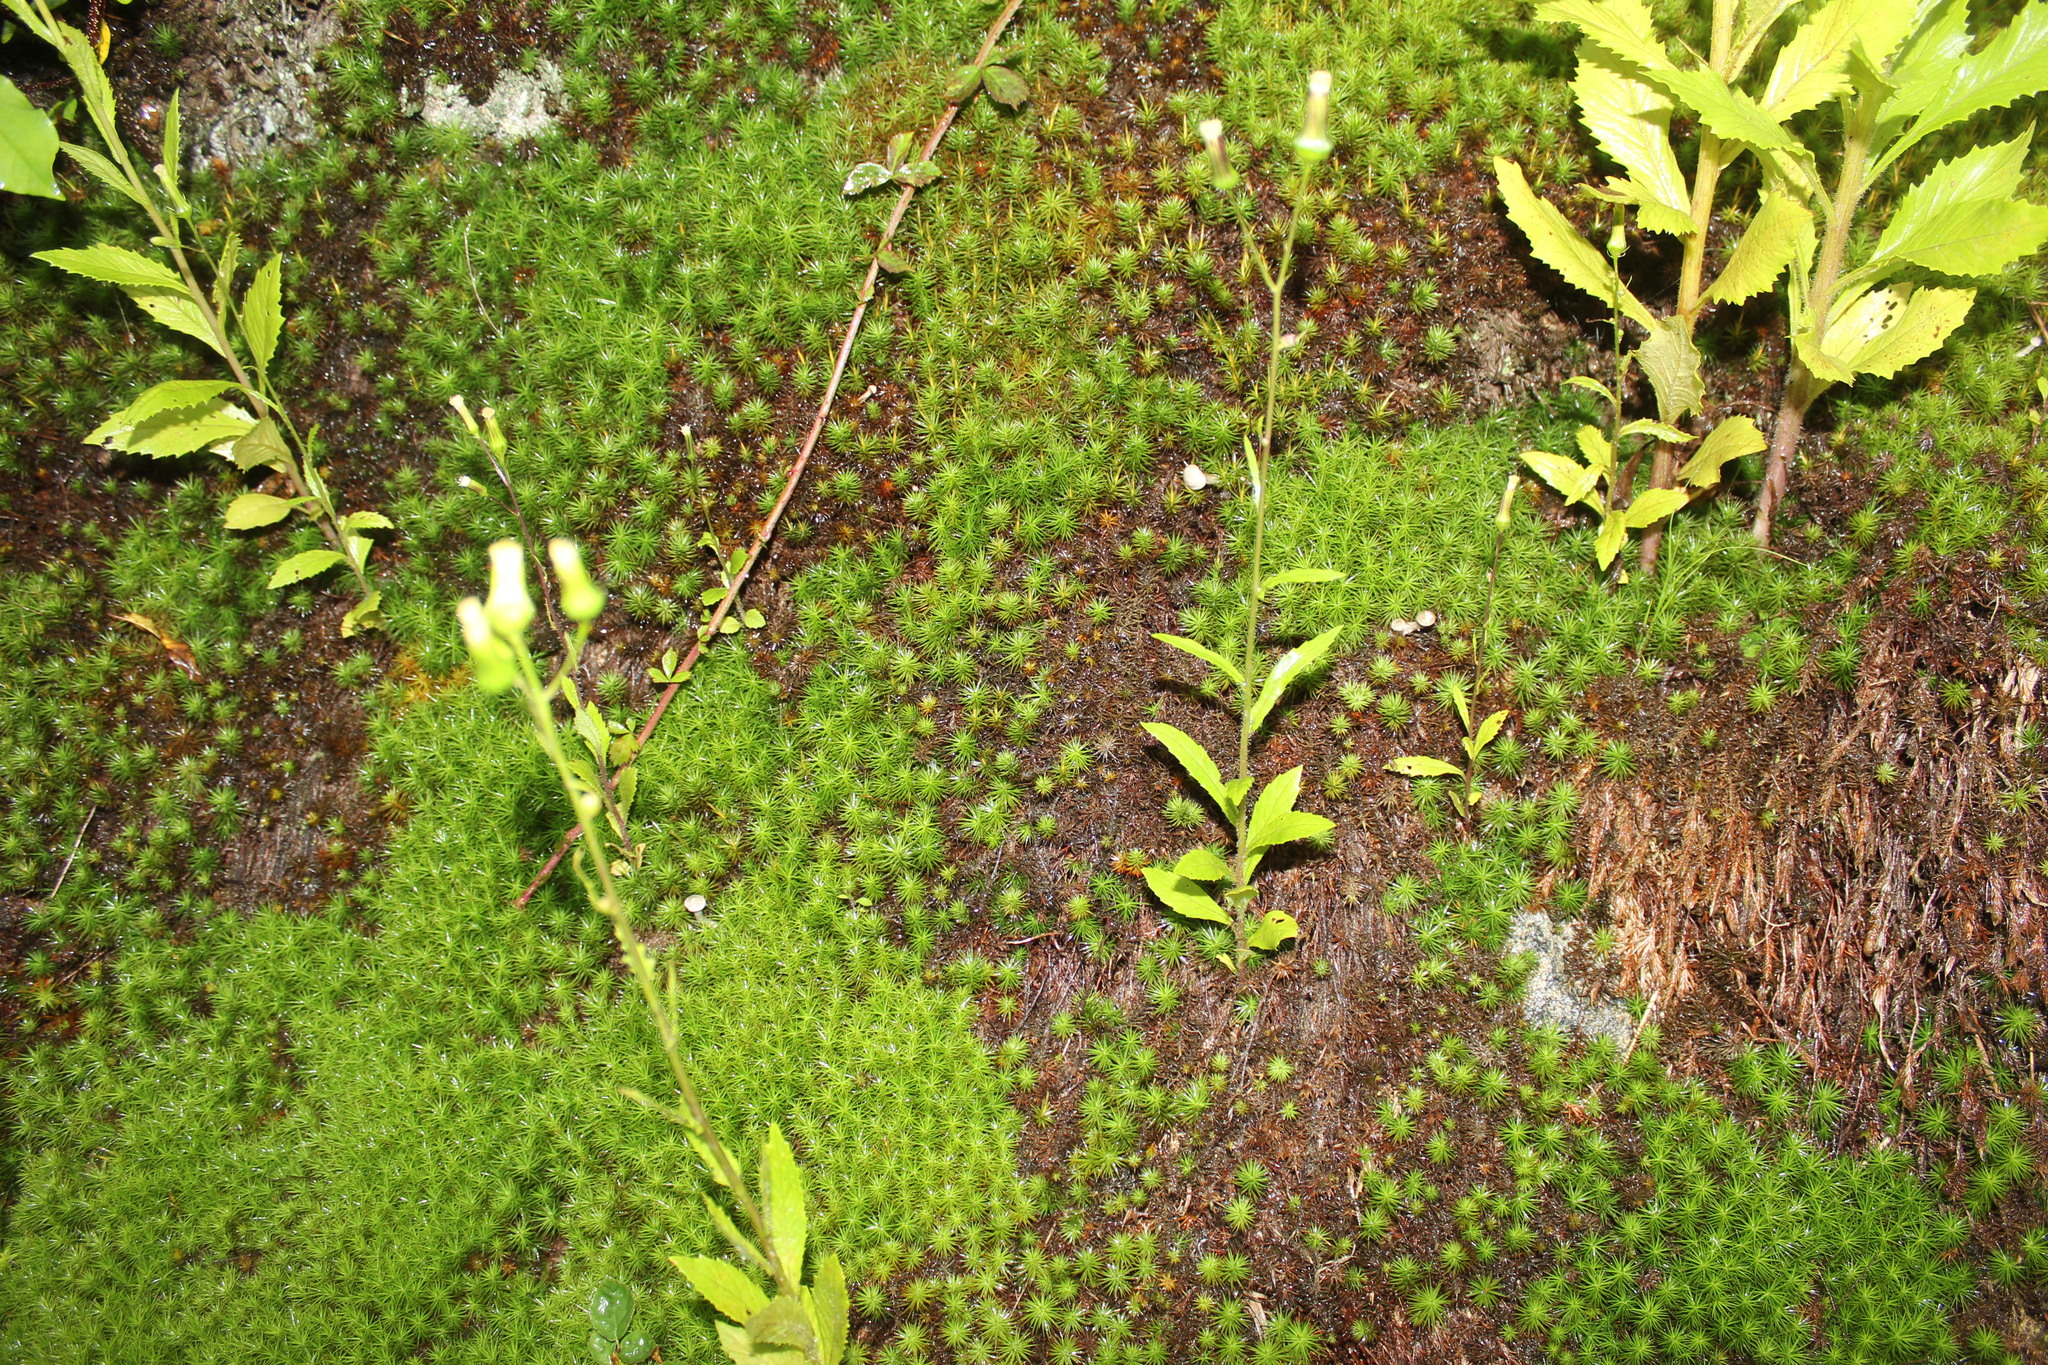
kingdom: Fungi
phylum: Basidiomycota
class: Agaricomycetes
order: Agaricales
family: Hygrophoraceae
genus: Cantharellula
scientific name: Cantharellula umbonata
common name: The humpback
